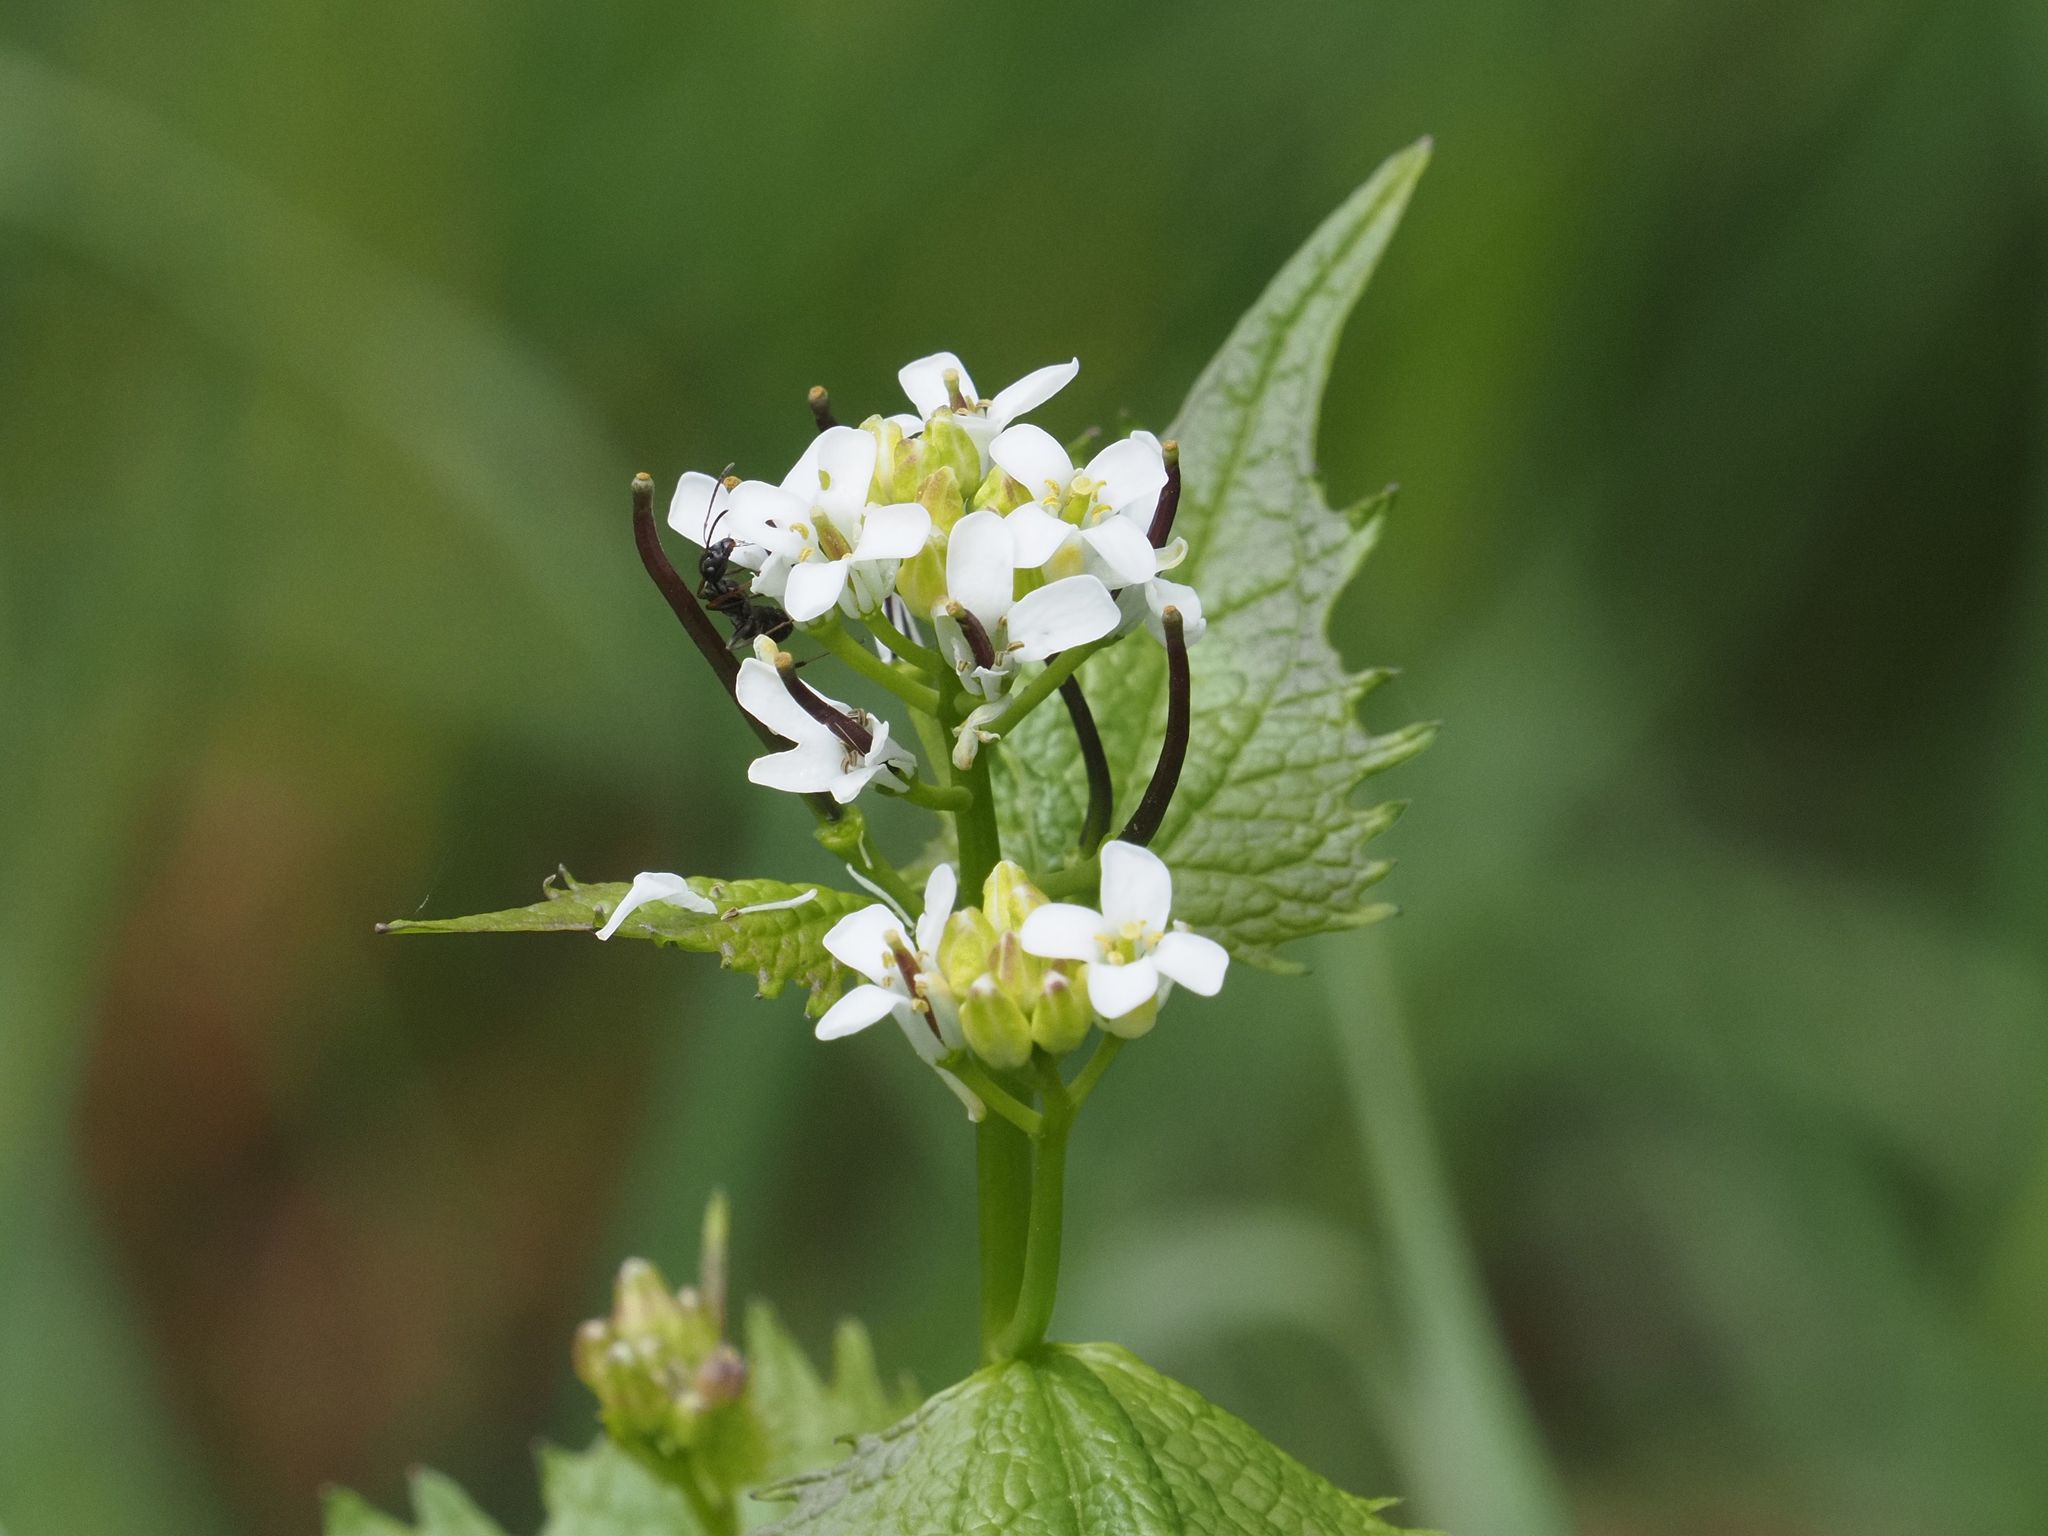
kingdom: Plantae
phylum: Tracheophyta
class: Magnoliopsida
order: Brassicales
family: Brassicaceae
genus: Alliaria
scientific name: Alliaria petiolata
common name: Garlic mustard
